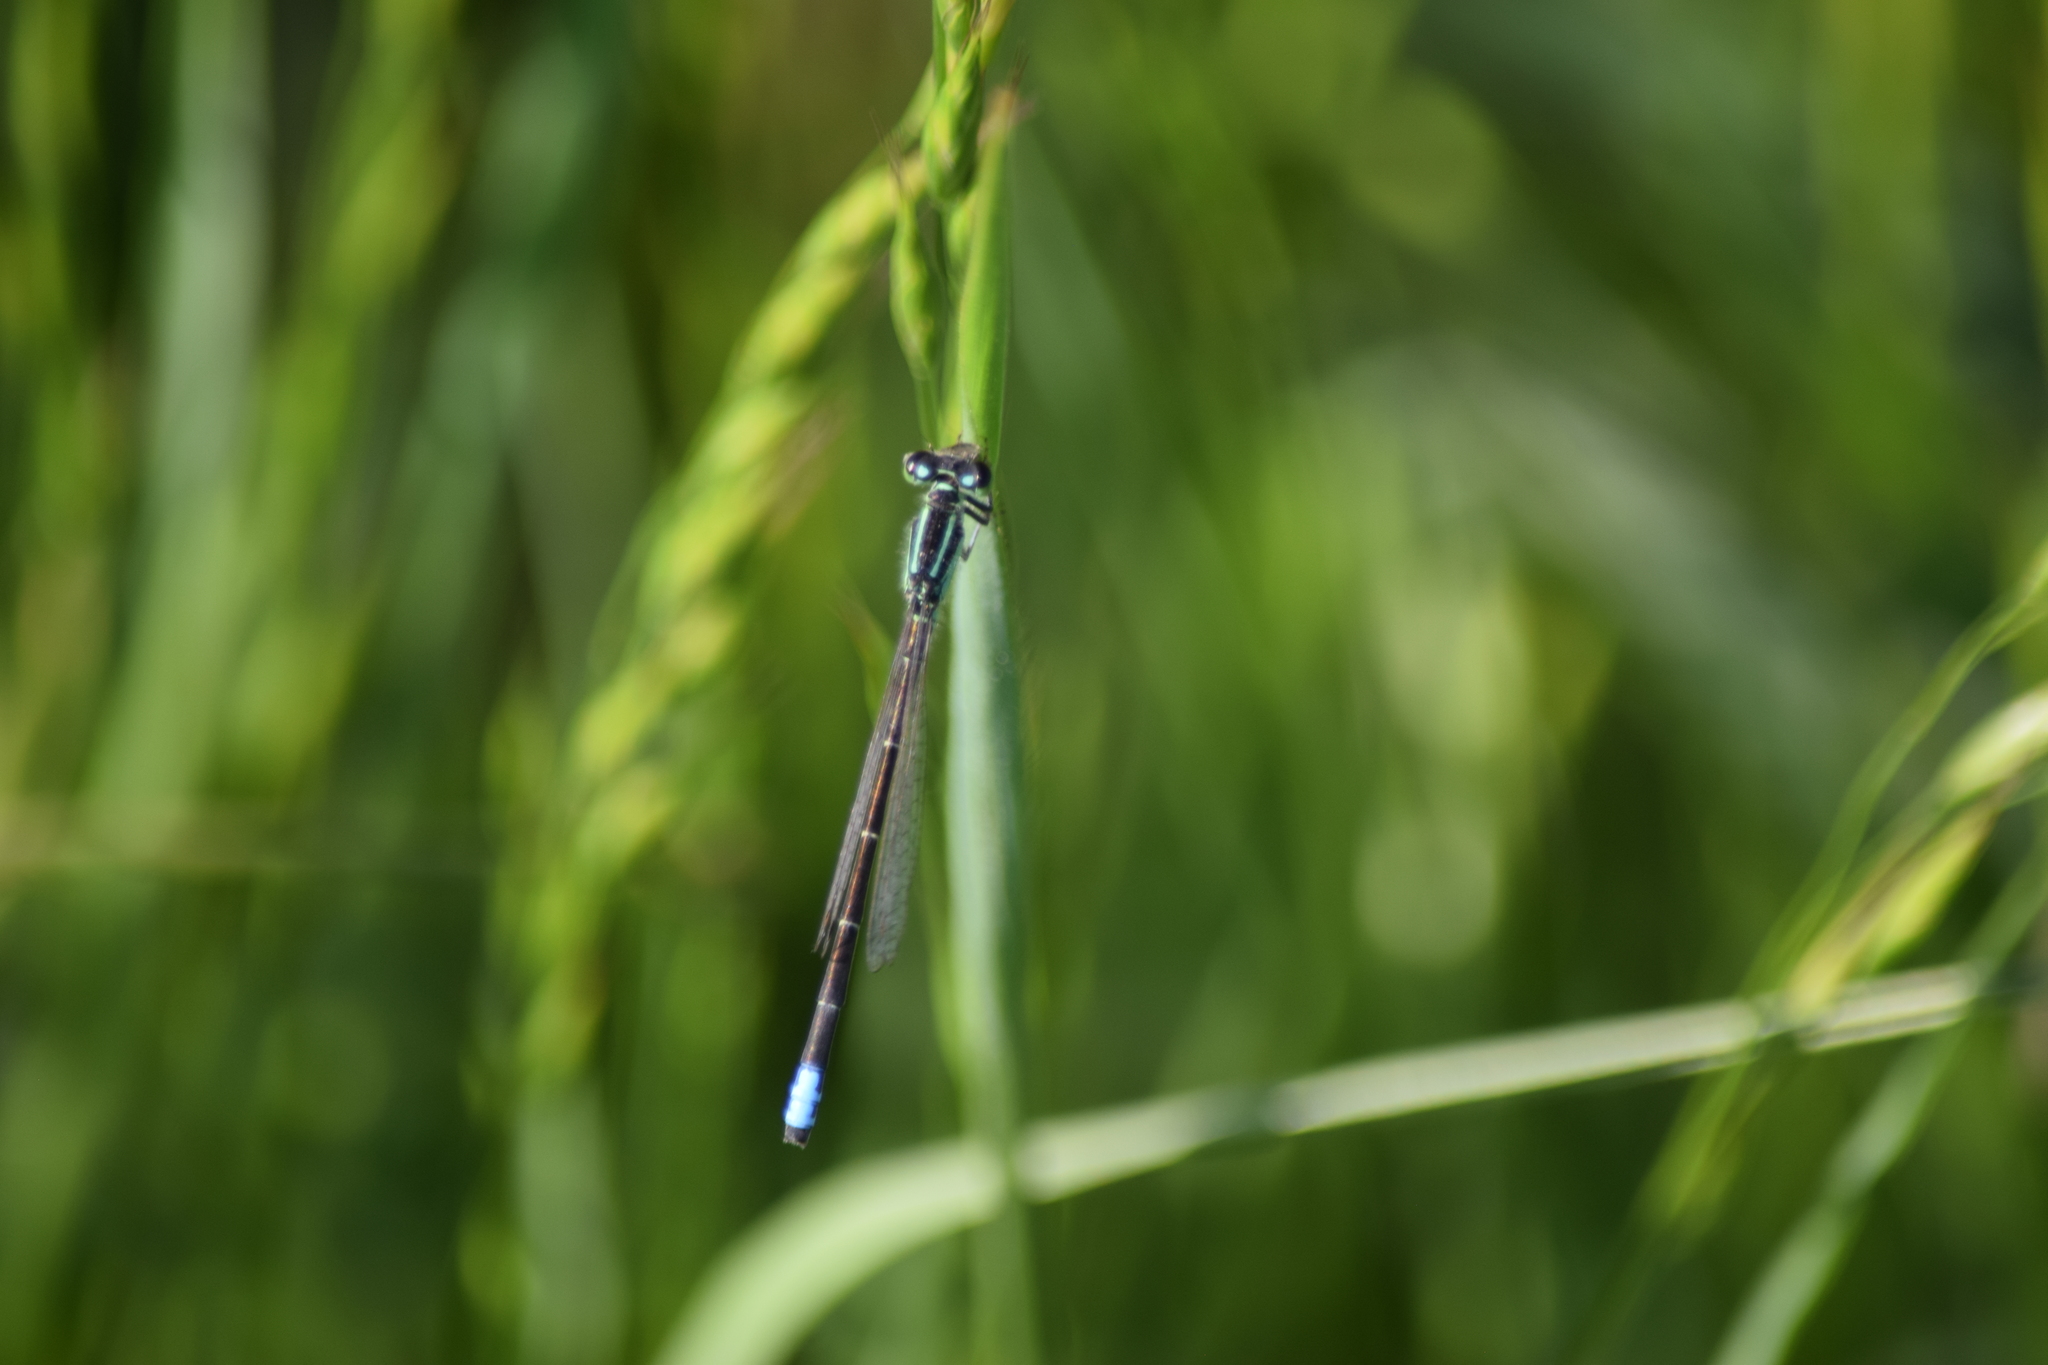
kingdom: Animalia
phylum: Arthropoda
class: Insecta
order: Odonata
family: Coenagrionidae
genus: Ischnura
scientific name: Ischnura verticalis
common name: Eastern forktail
